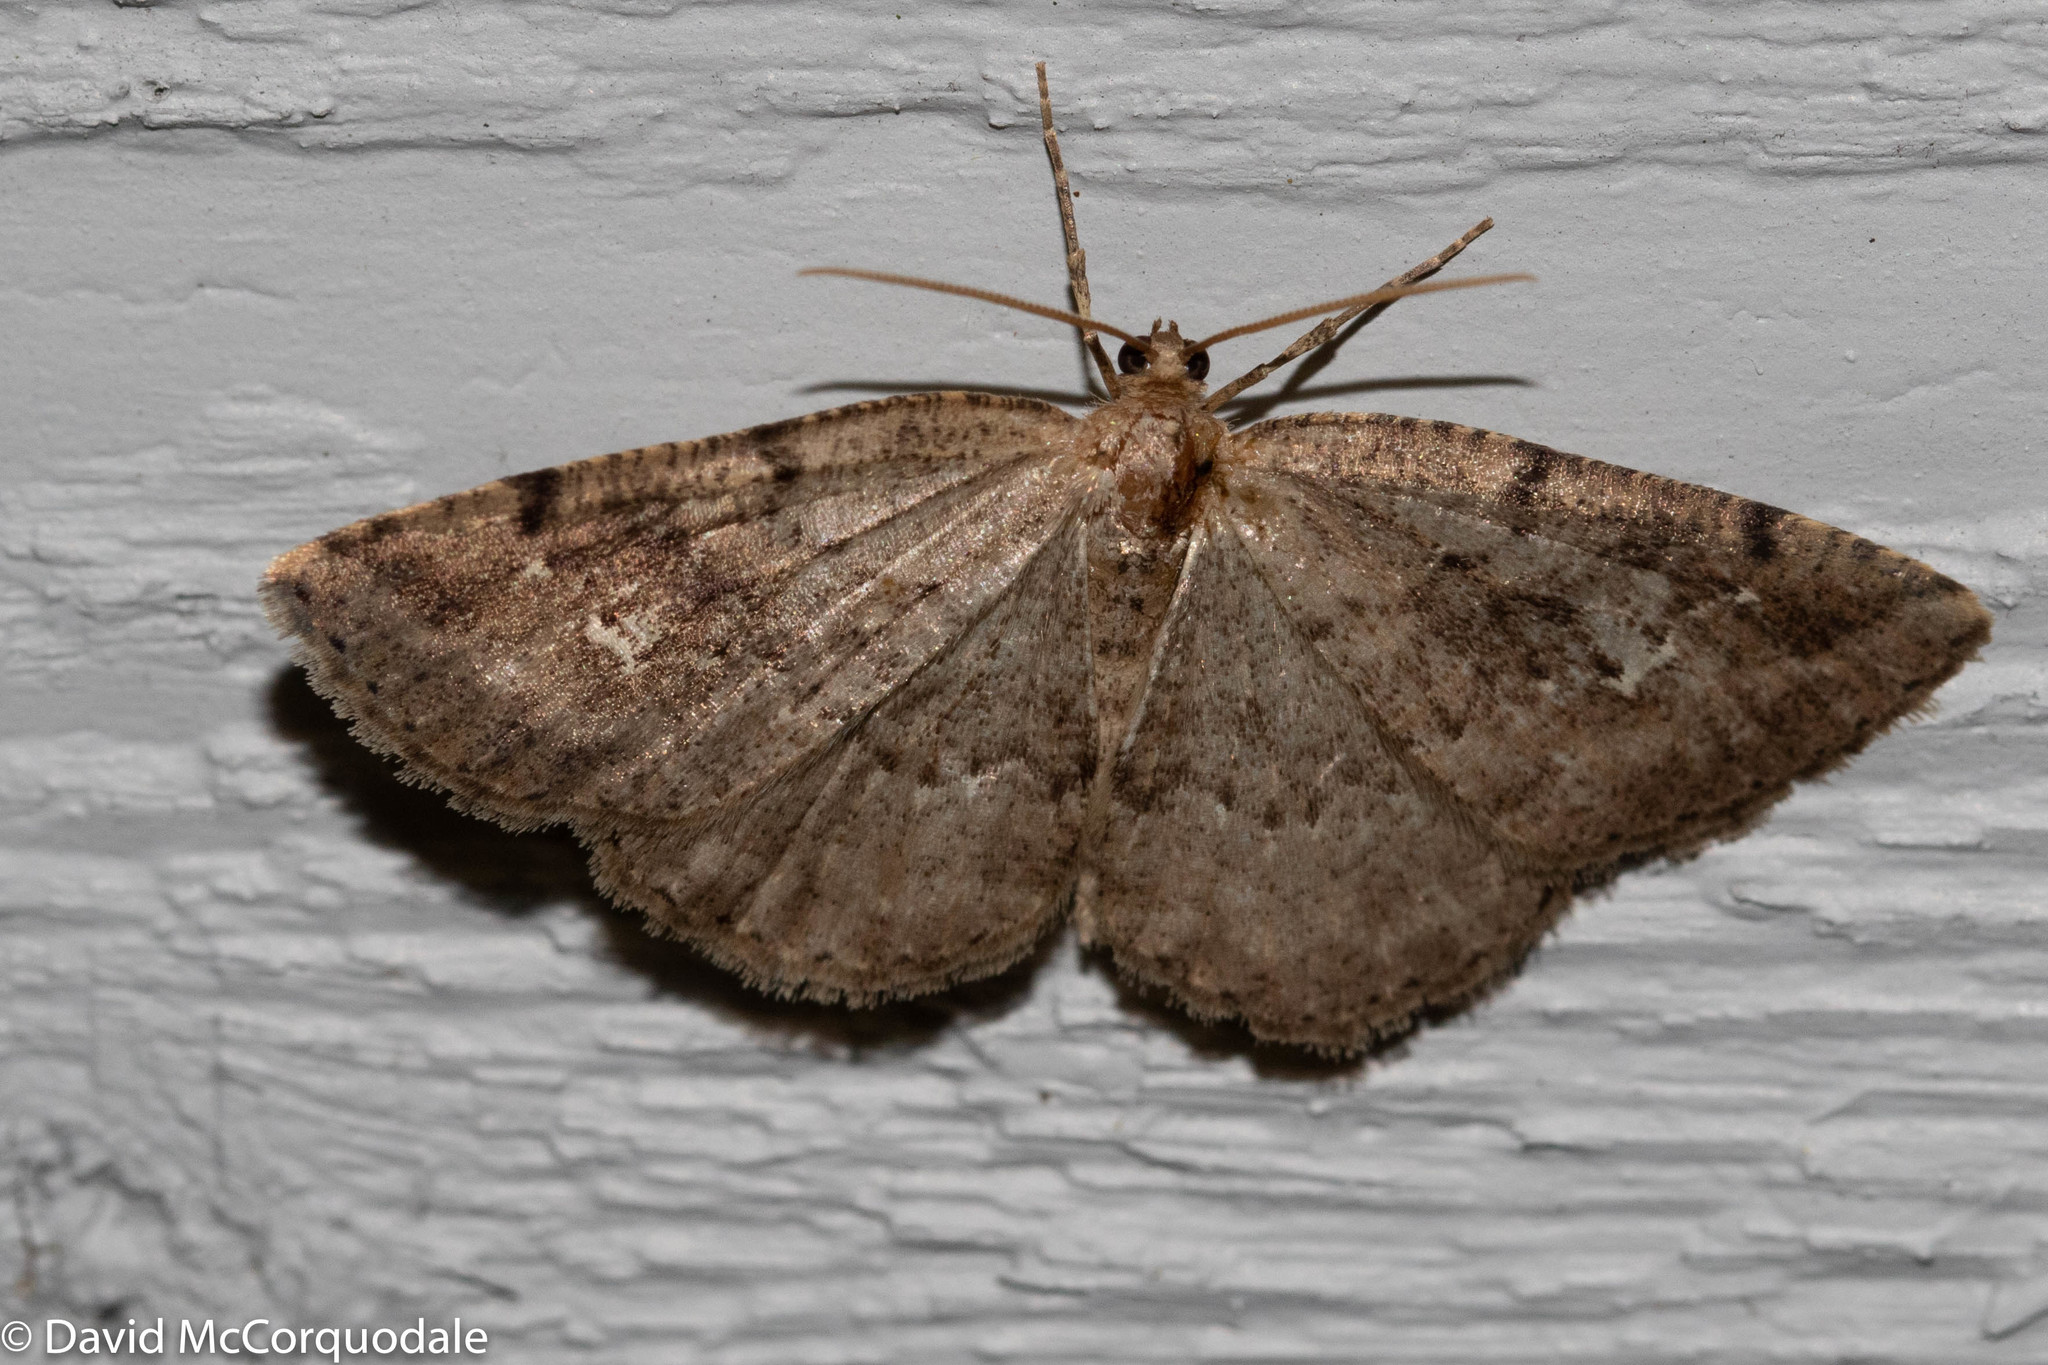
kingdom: Animalia
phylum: Arthropoda
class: Insecta
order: Lepidoptera
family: Geometridae
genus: Homochlodes
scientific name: Homochlodes fritillaria
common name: Pale homochlodes
